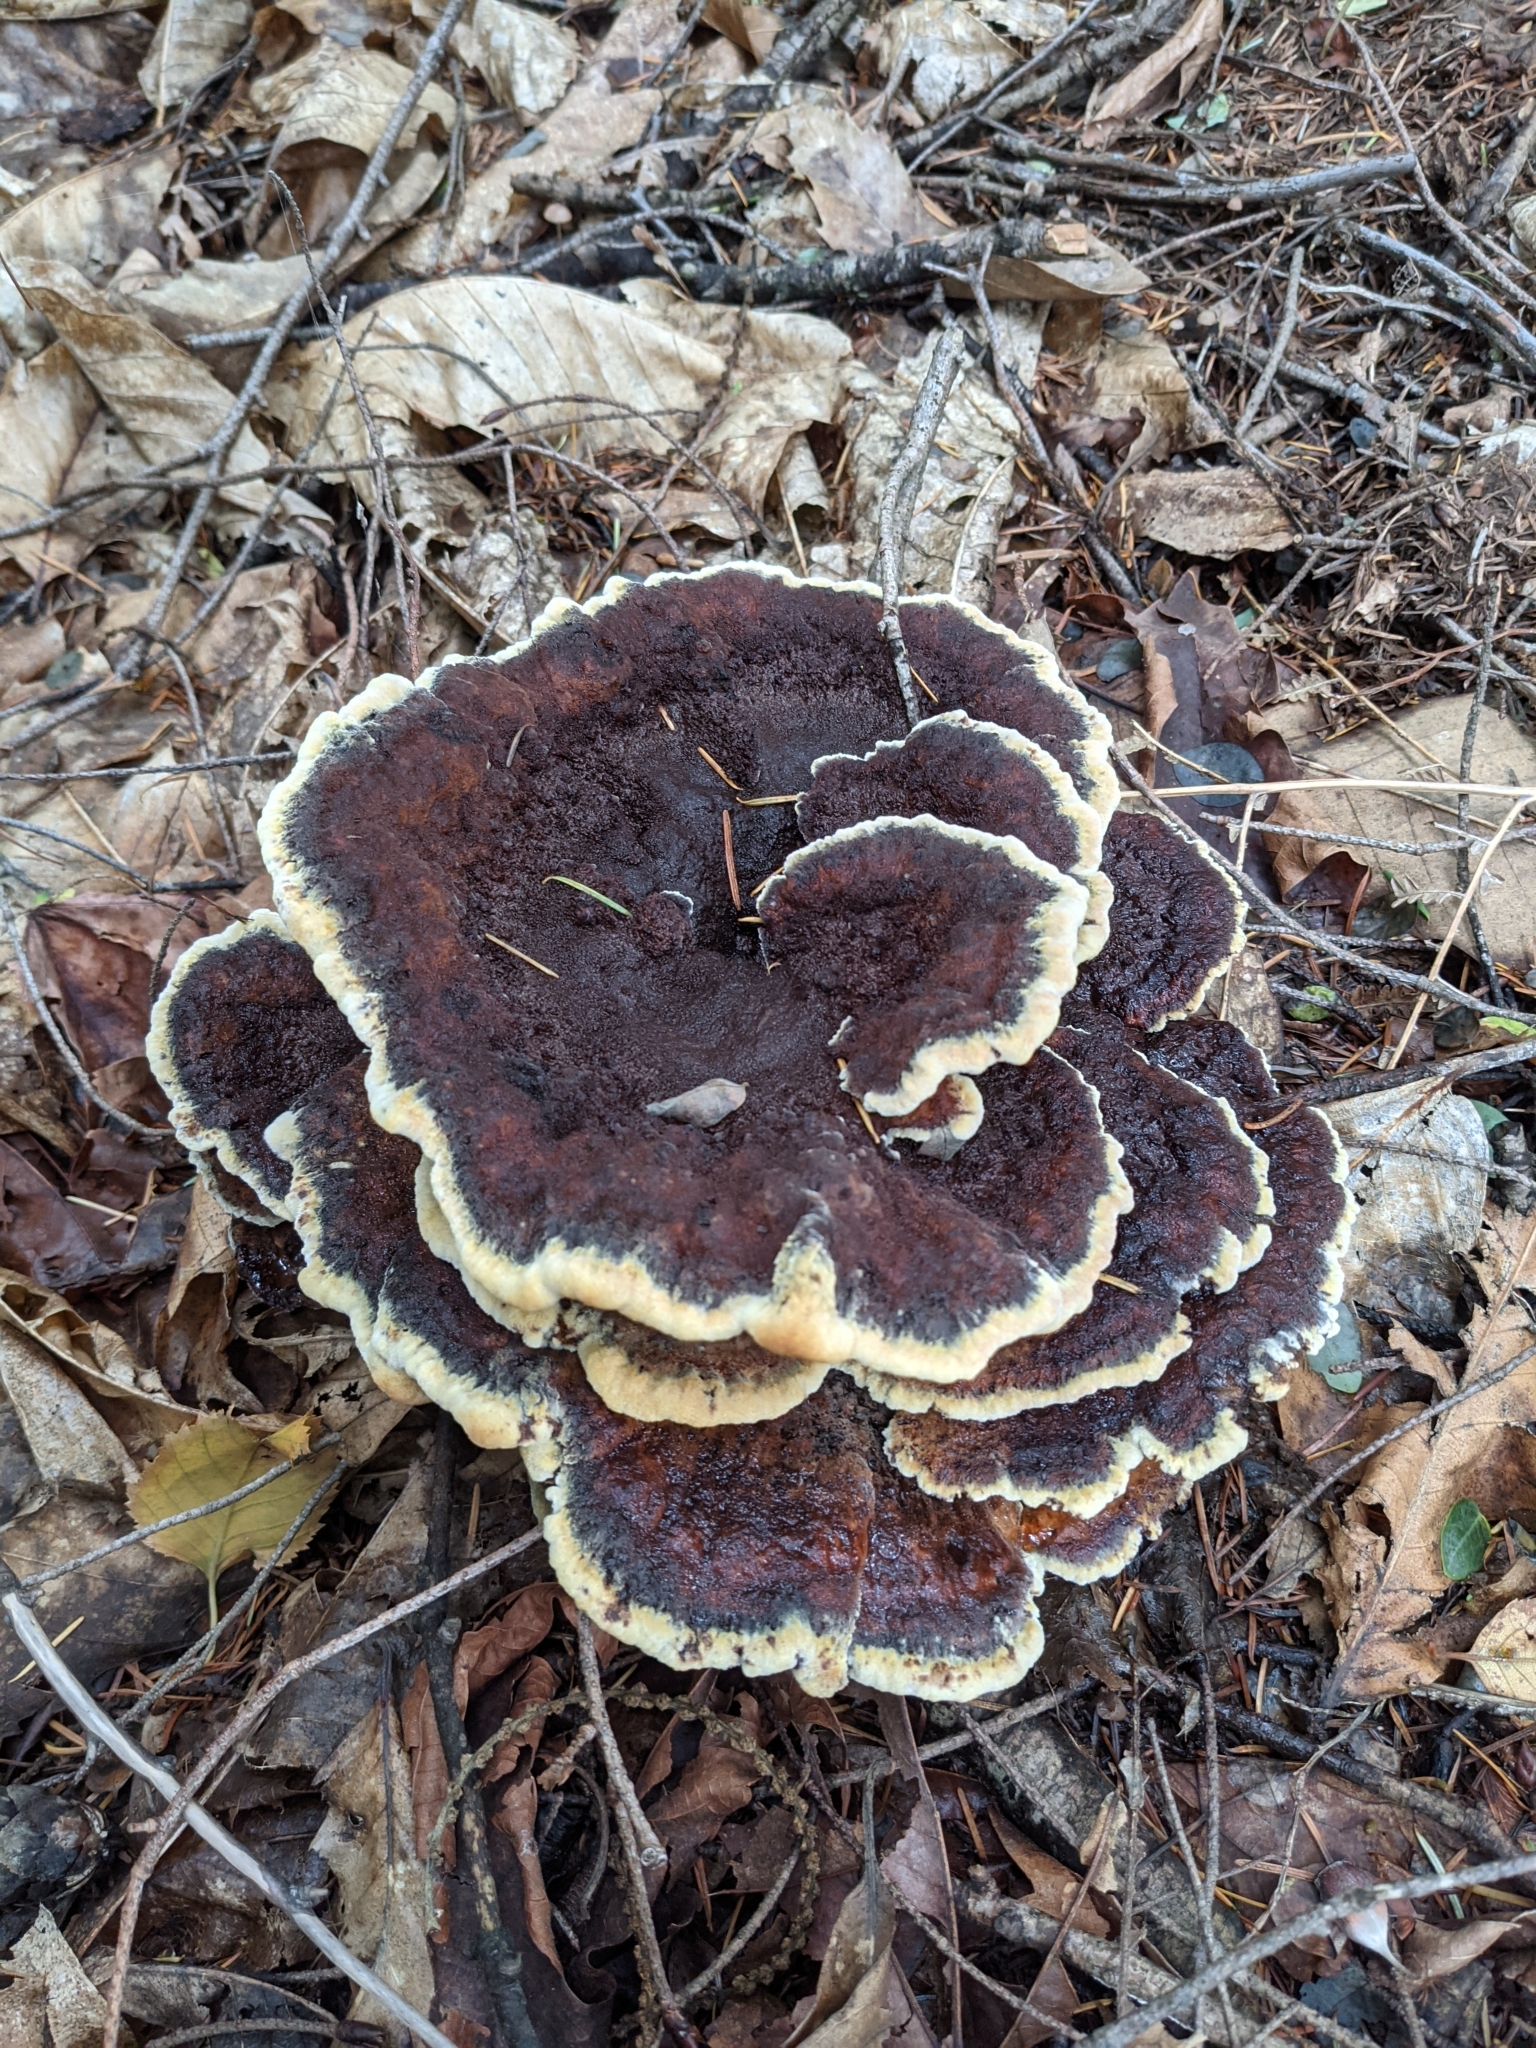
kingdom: Fungi
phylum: Basidiomycota
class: Agaricomycetes
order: Polyporales
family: Laetiporaceae
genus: Phaeolus
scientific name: Phaeolus schweinitzii
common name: Dyer's mazegill
